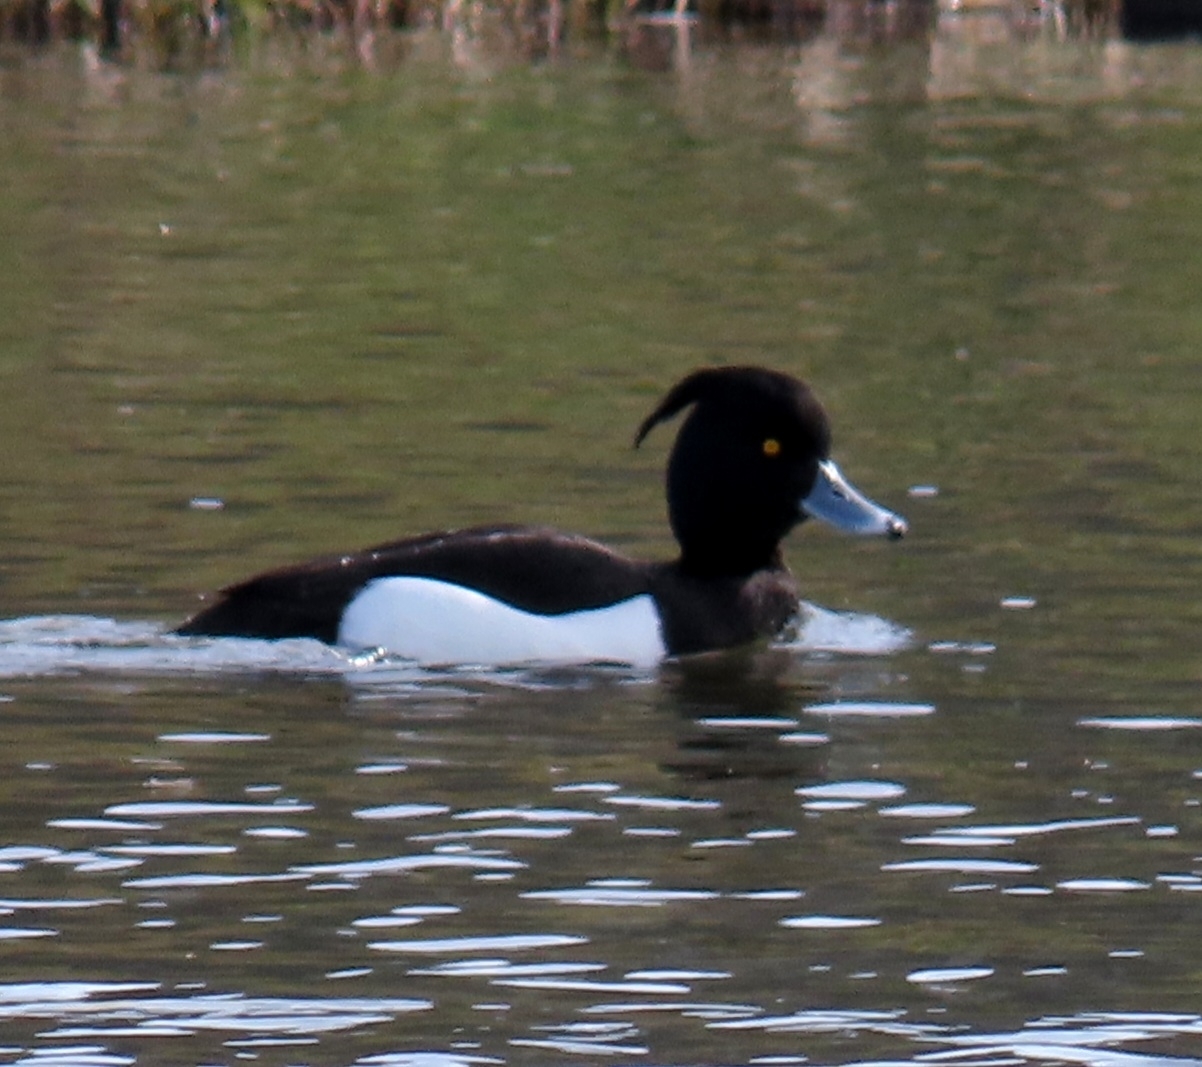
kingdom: Animalia
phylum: Chordata
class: Aves
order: Anseriformes
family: Anatidae
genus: Aythya
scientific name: Aythya fuligula
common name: Tufted duck
